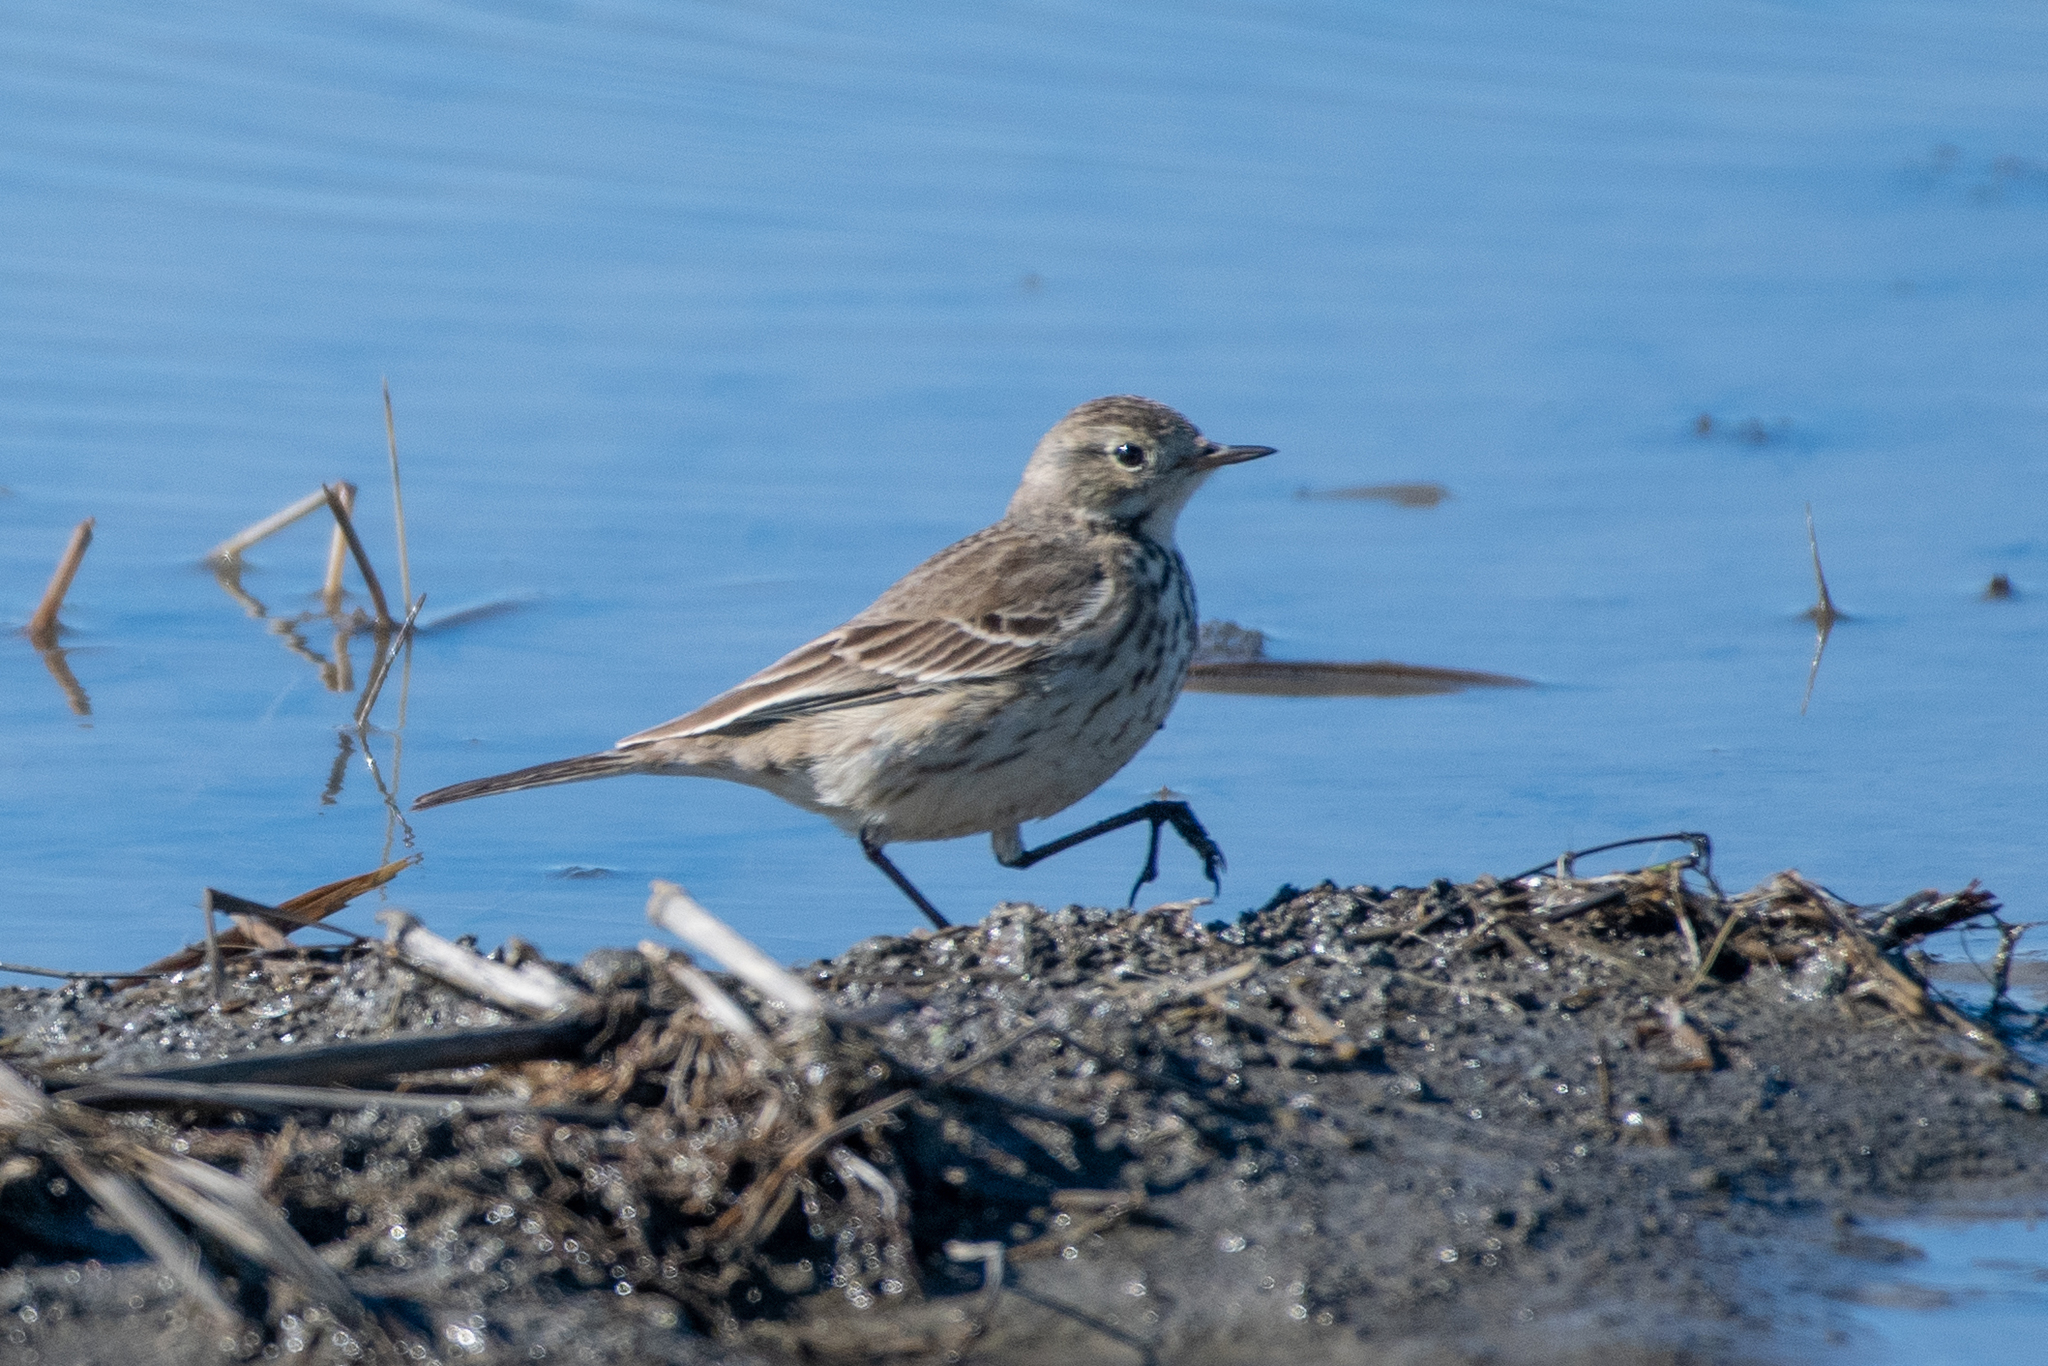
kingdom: Animalia
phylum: Chordata
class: Aves
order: Passeriformes
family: Motacillidae
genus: Anthus
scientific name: Anthus rubescens
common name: Buff-bellied pipit
